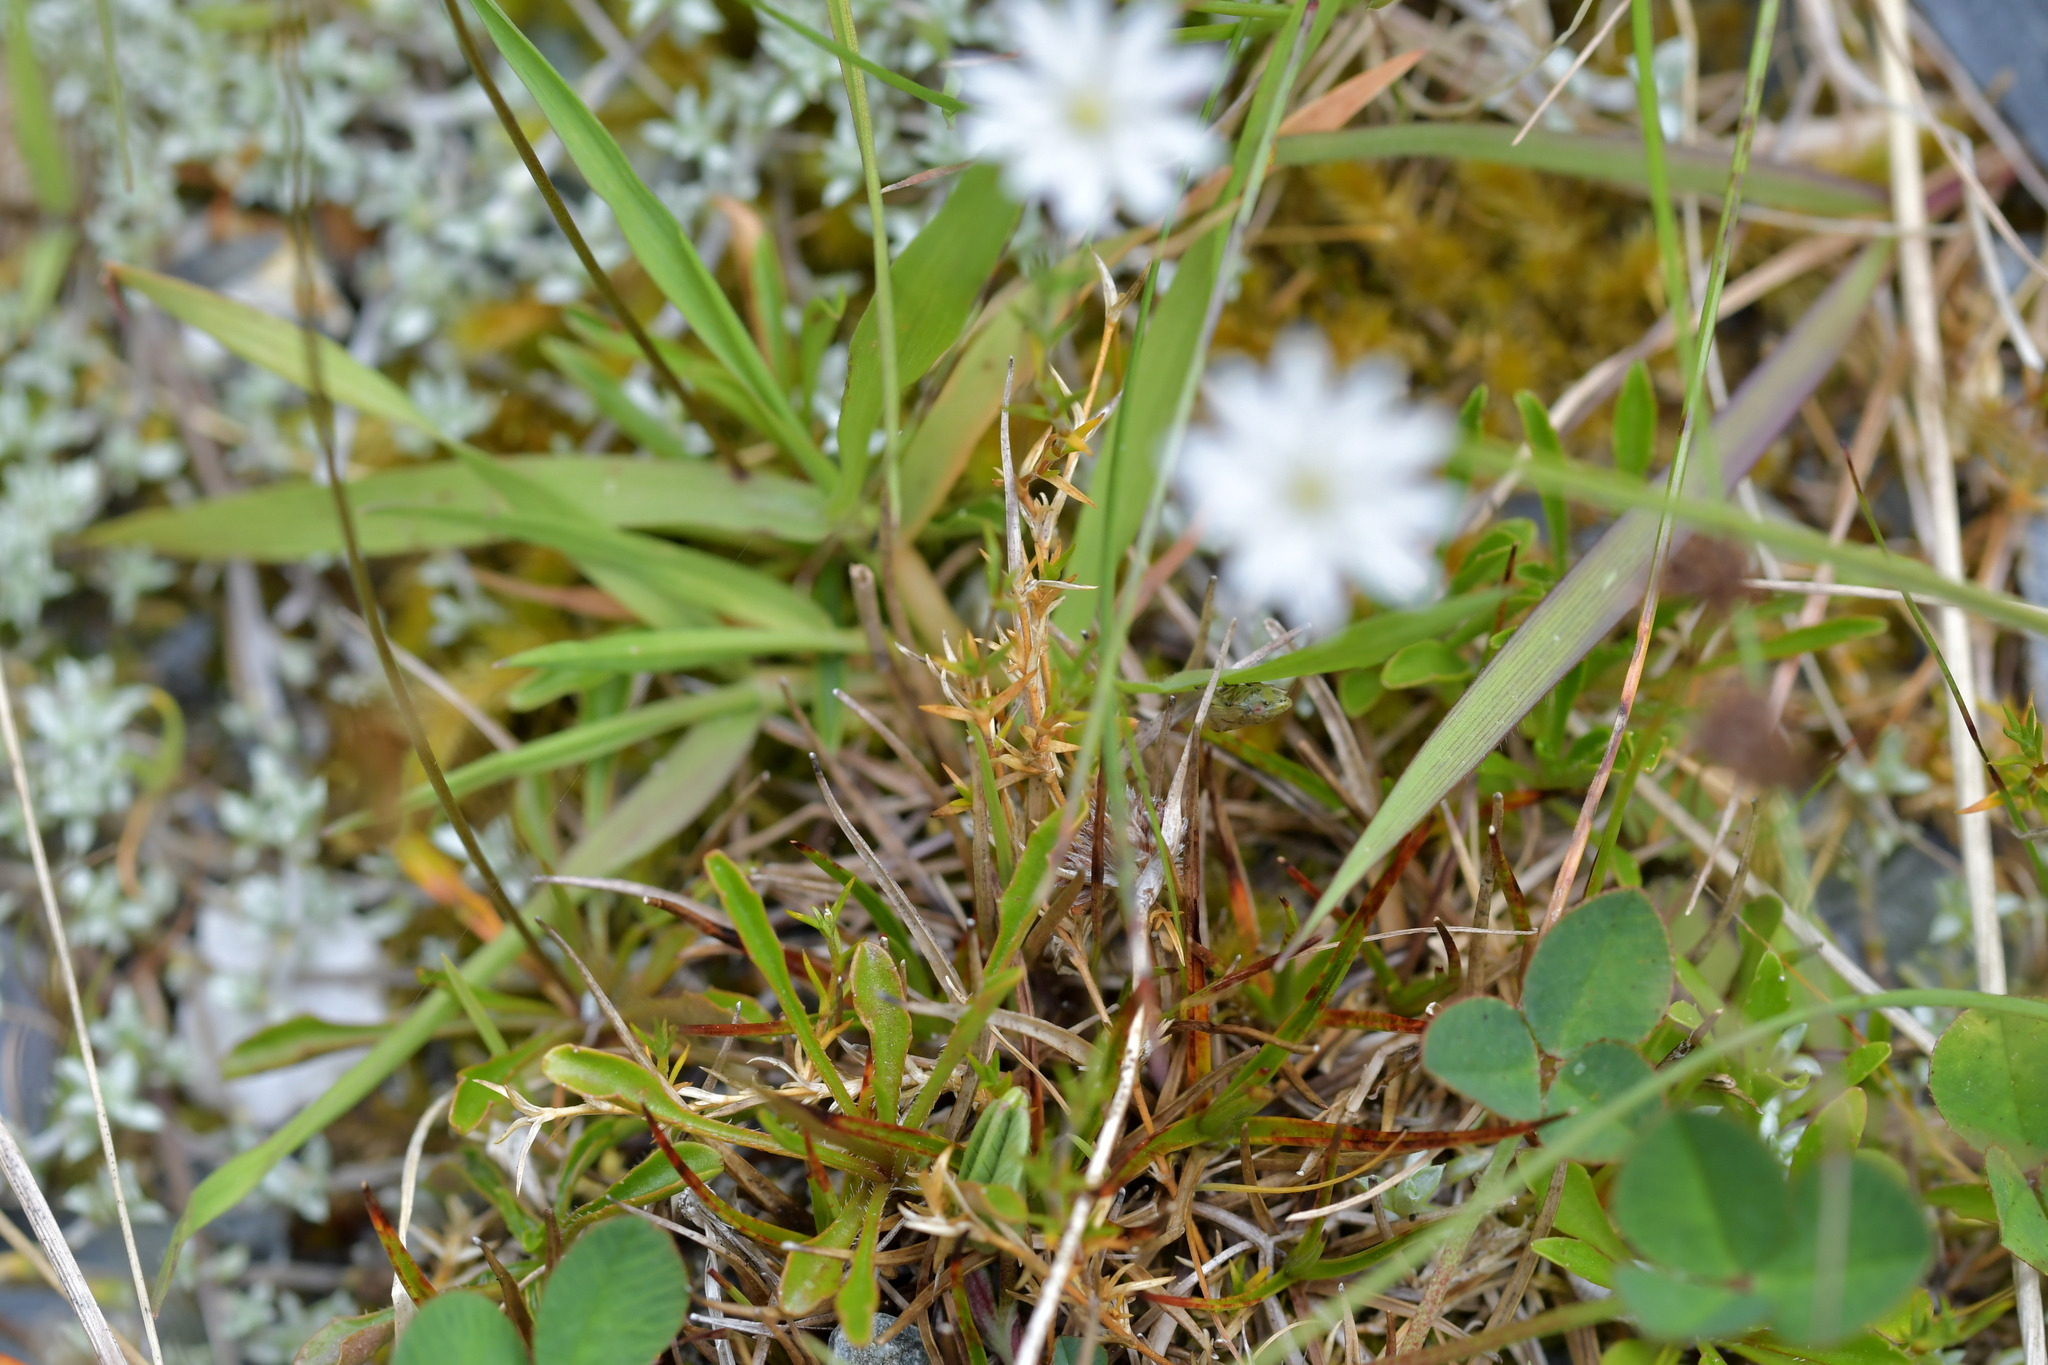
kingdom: Plantae
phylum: Tracheophyta
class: Magnoliopsida
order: Caryophyllales
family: Caryophyllaceae
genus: Stellaria
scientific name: Stellaria graminea
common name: Grass-like starwort
